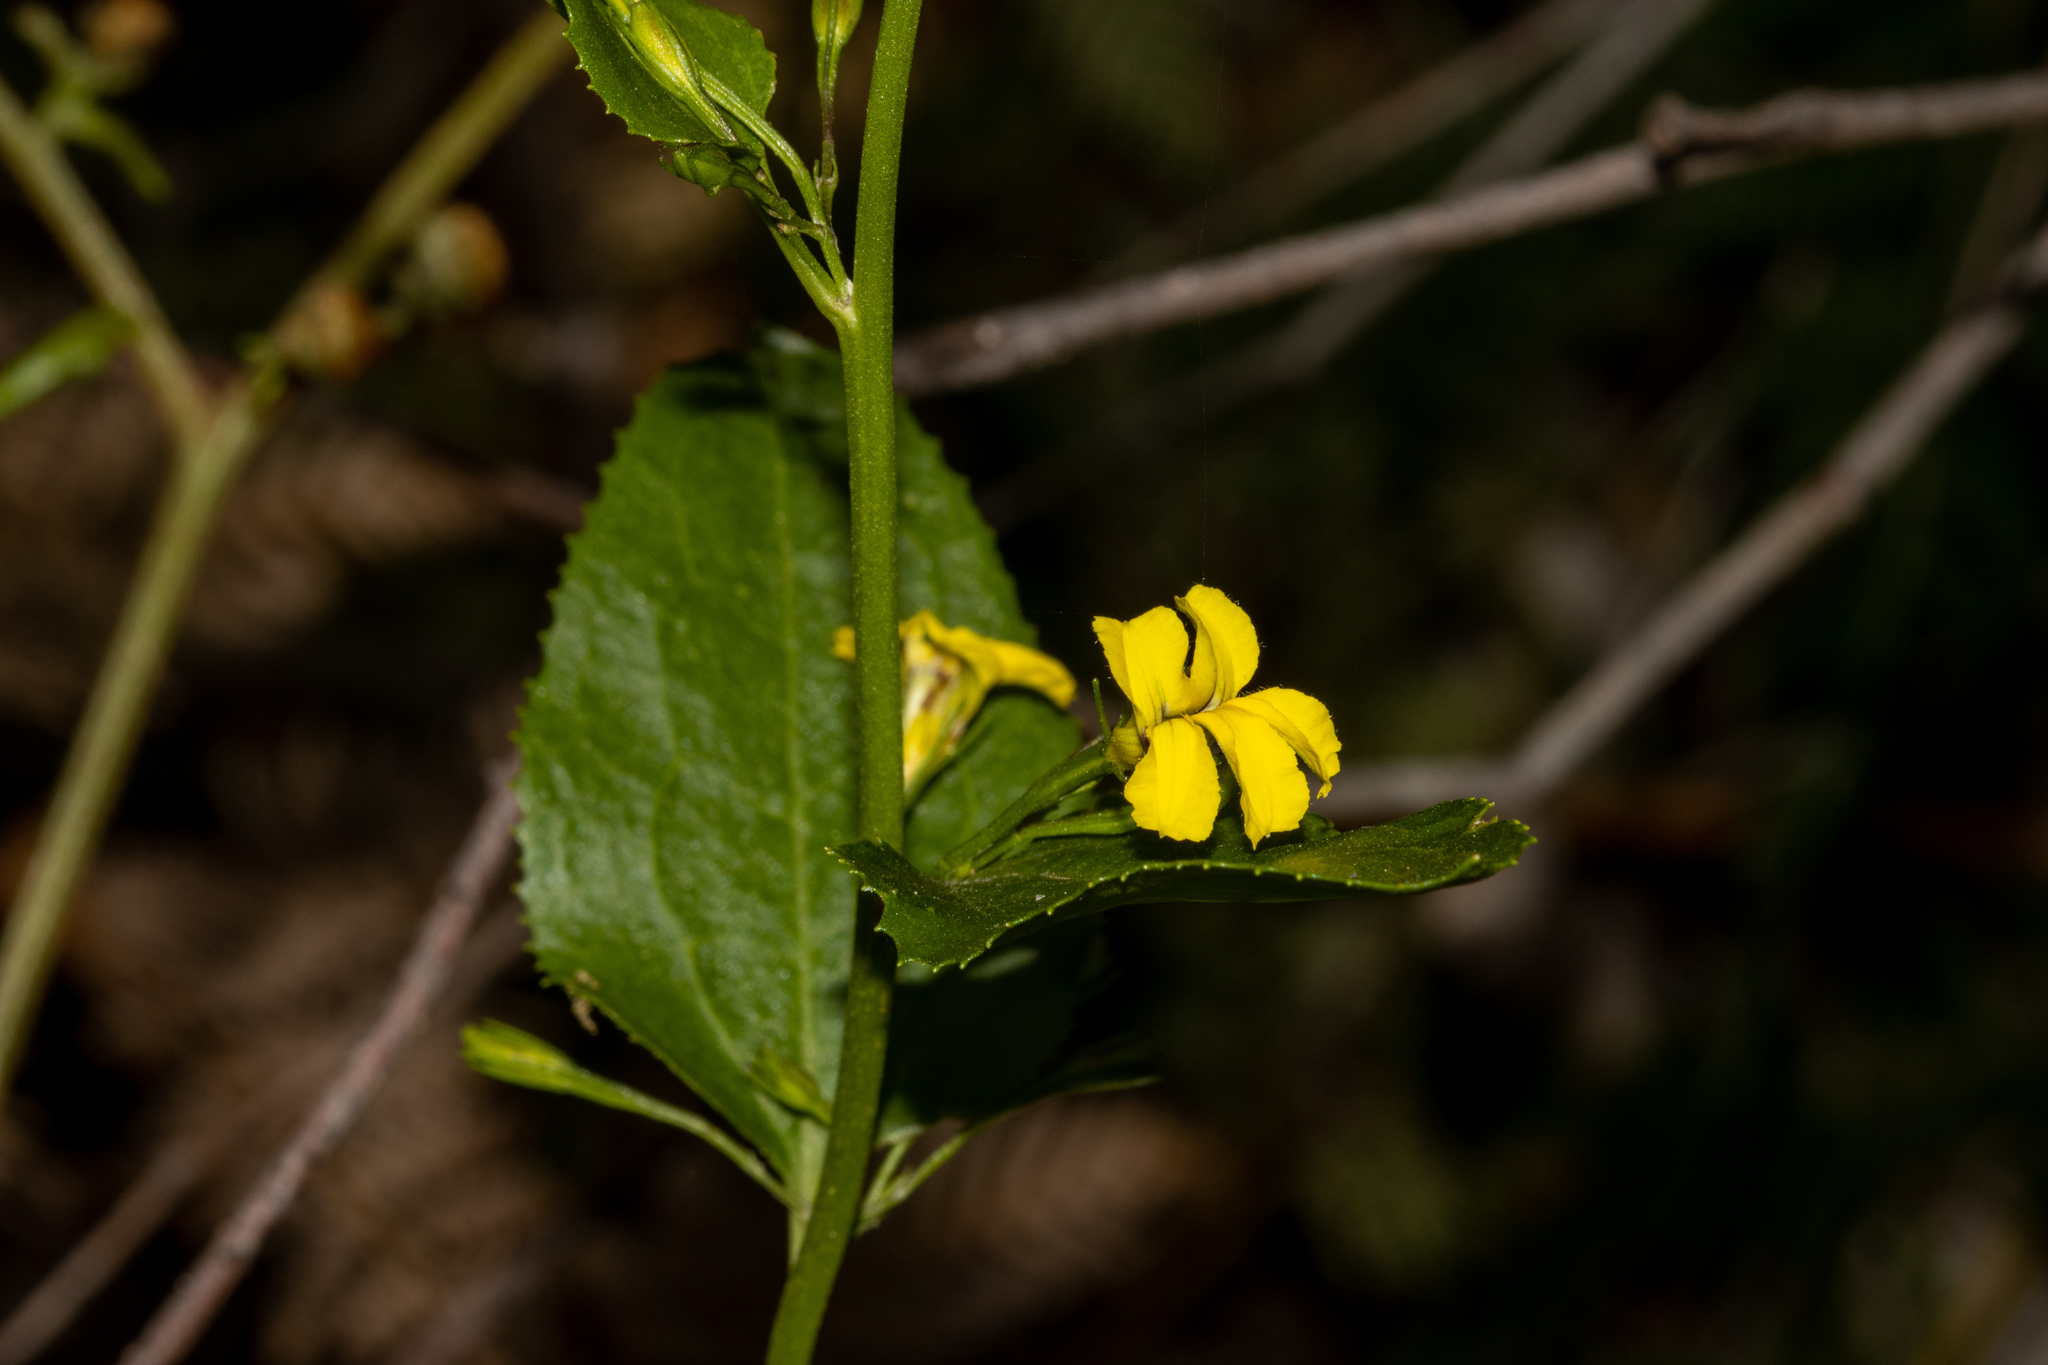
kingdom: Plantae
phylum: Tracheophyta
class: Magnoliopsida
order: Asterales
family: Goodeniaceae
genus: Goodenia
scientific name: Goodenia ovata
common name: Hop goodenia
